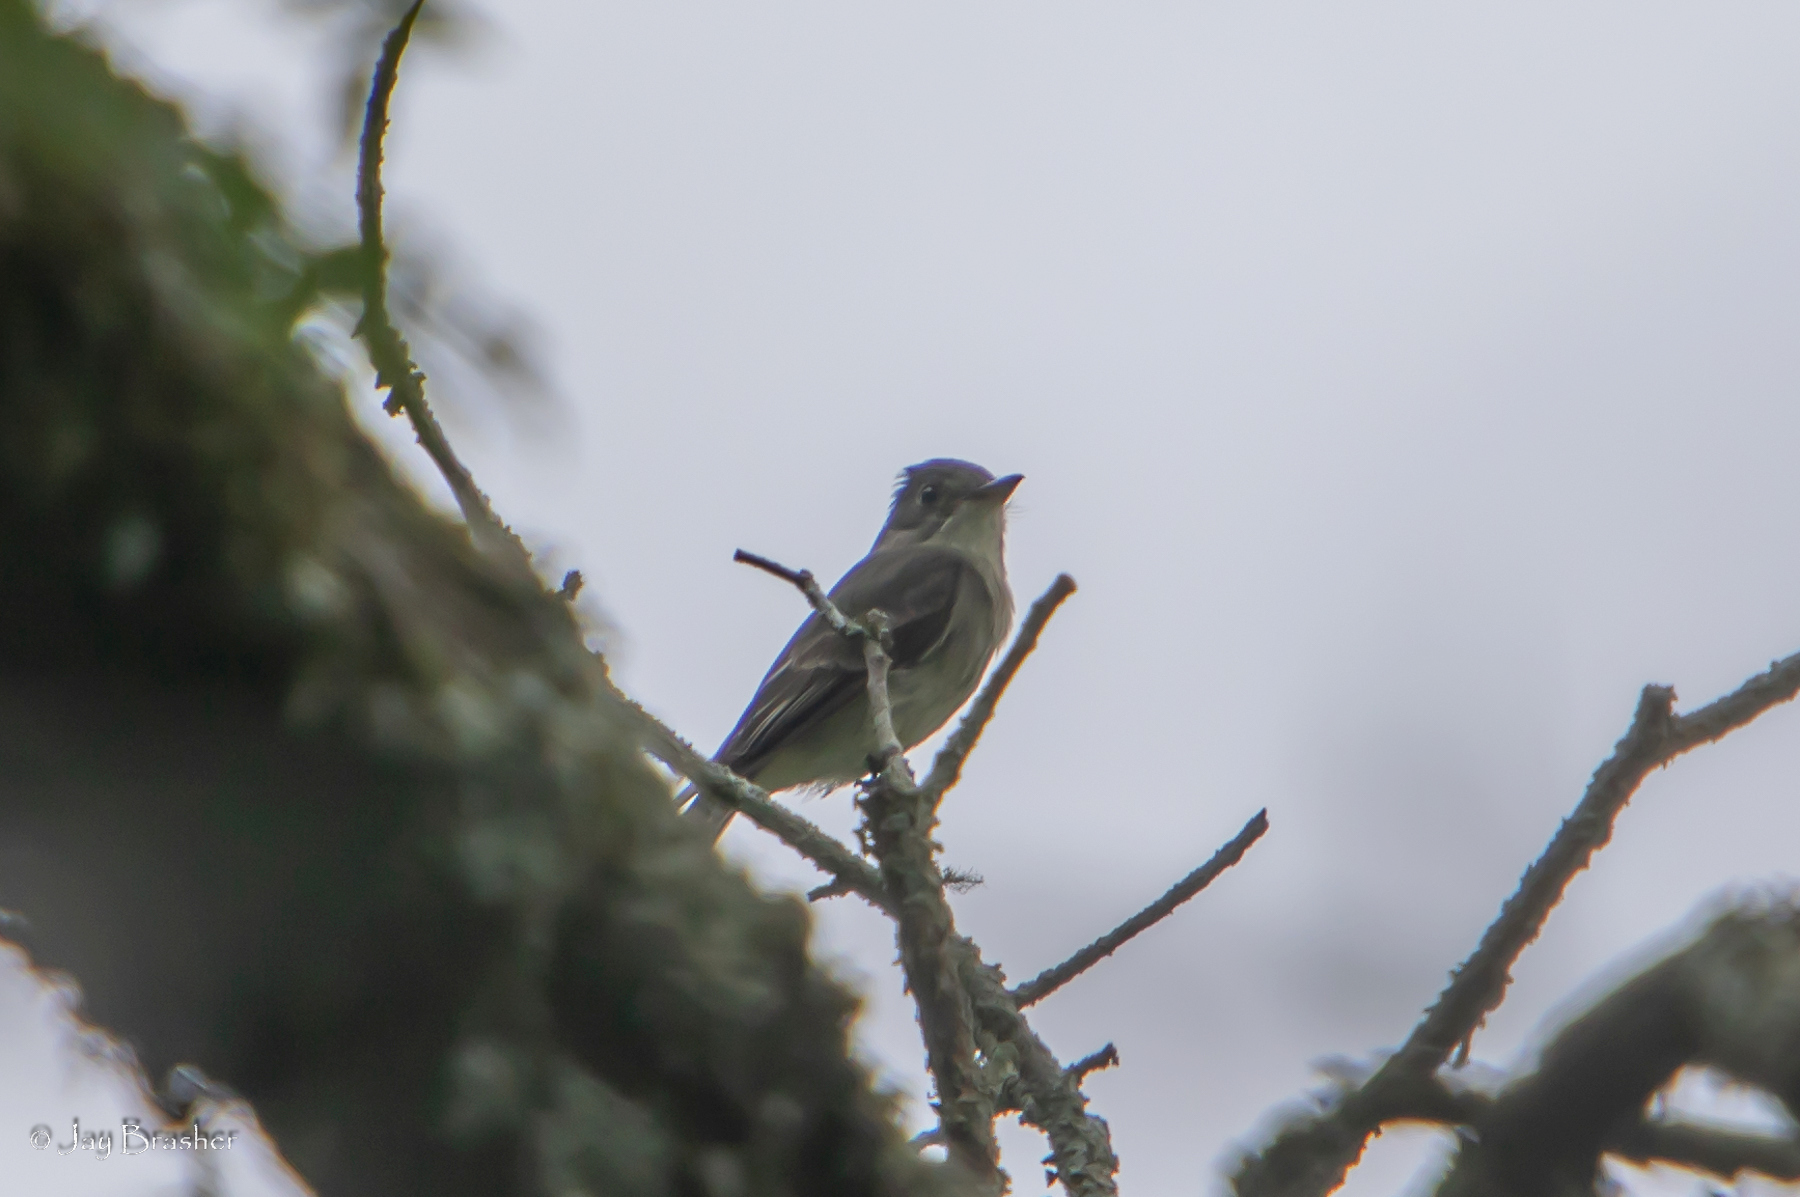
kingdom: Animalia
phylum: Chordata
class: Aves
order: Passeriformes
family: Tyrannidae
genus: Contopus
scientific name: Contopus virens
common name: Eastern wood-pewee
